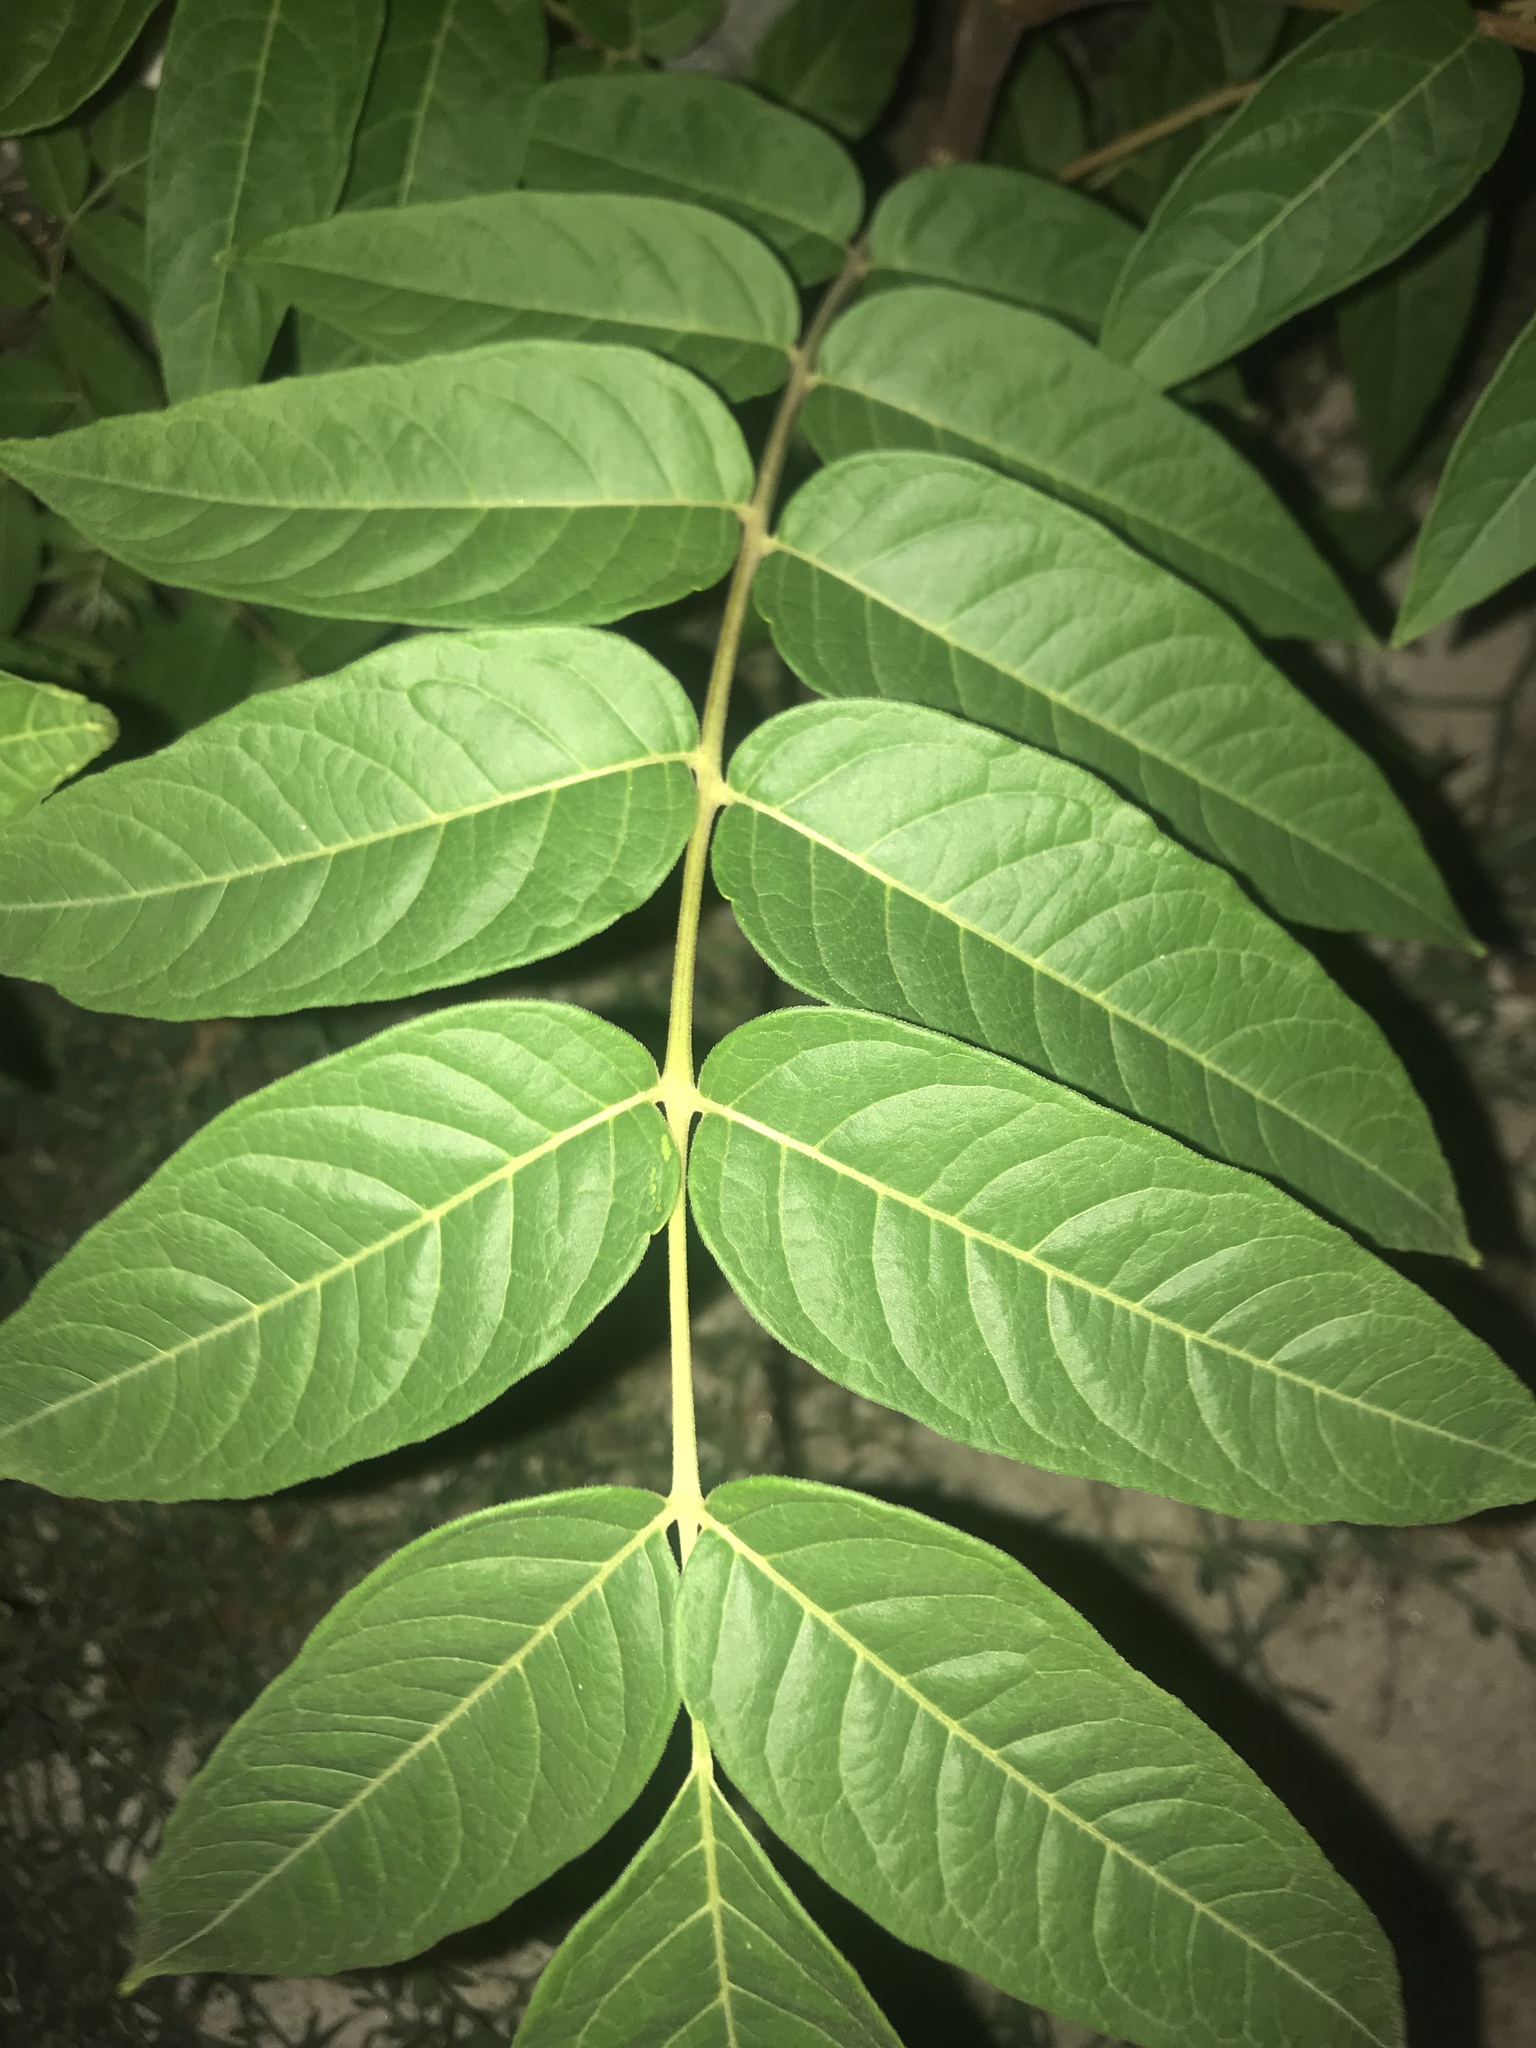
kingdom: Plantae
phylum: Tracheophyta
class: Magnoliopsida
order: Sapindales
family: Simaroubaceae
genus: Ailanthus
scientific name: Ailanthus altissima
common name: Tree-of-heaven
